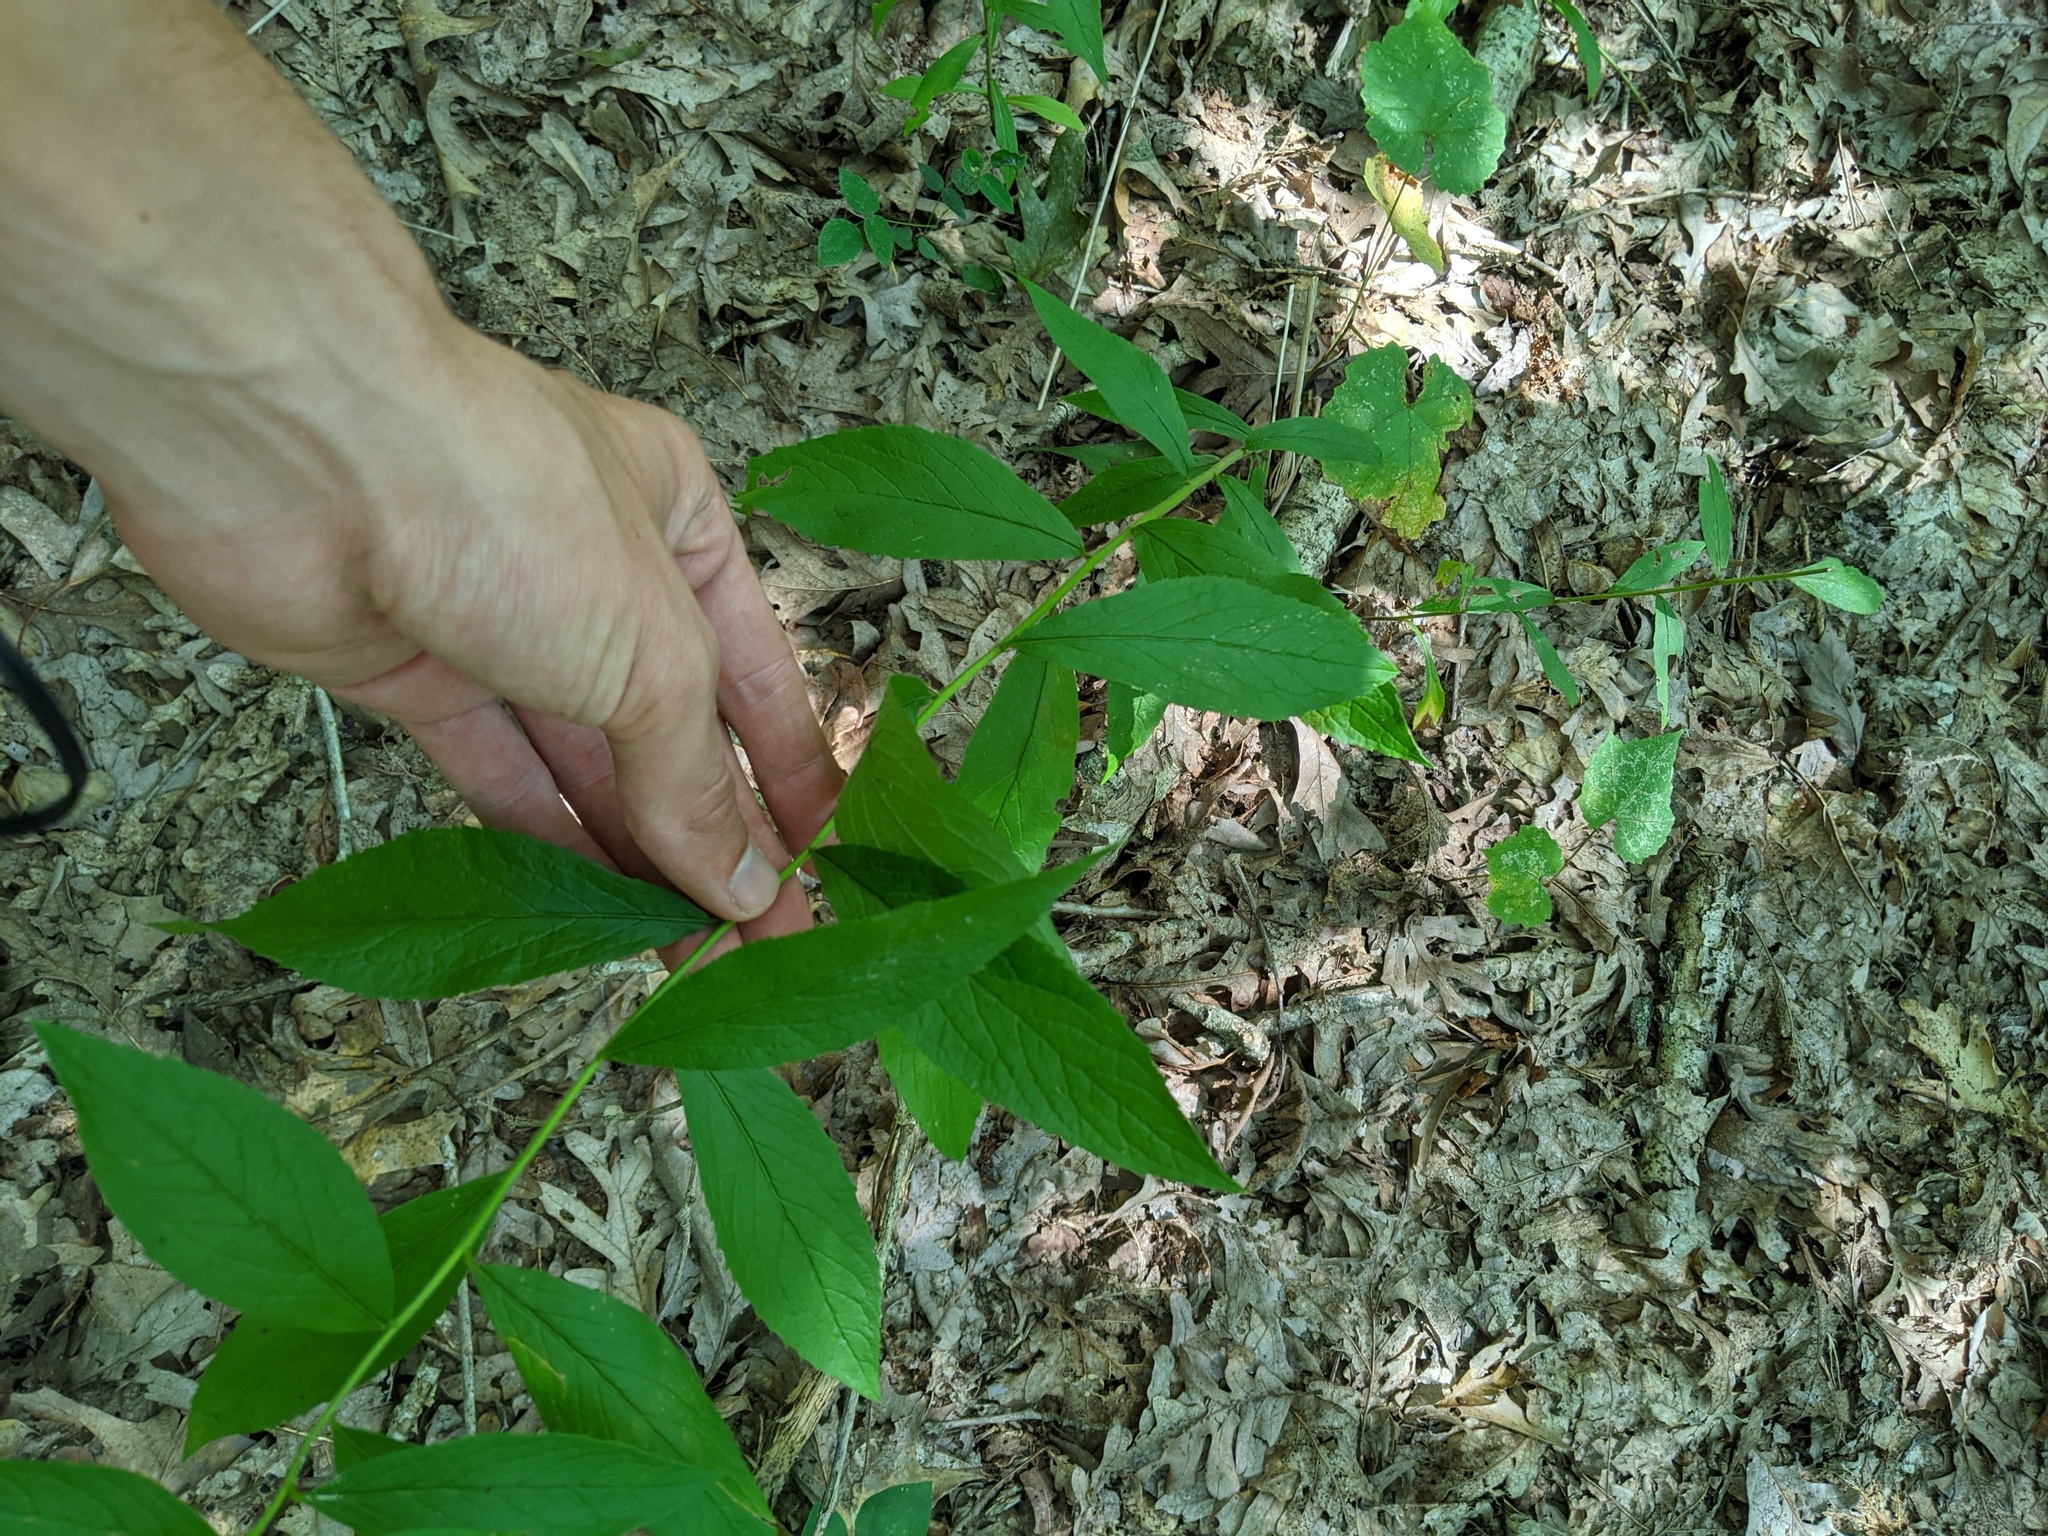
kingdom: Plantae
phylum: Tracheophyta
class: Magnoliopsida
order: Asterales
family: Asteraceae
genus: Solidago
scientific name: Solidago buckleyi
